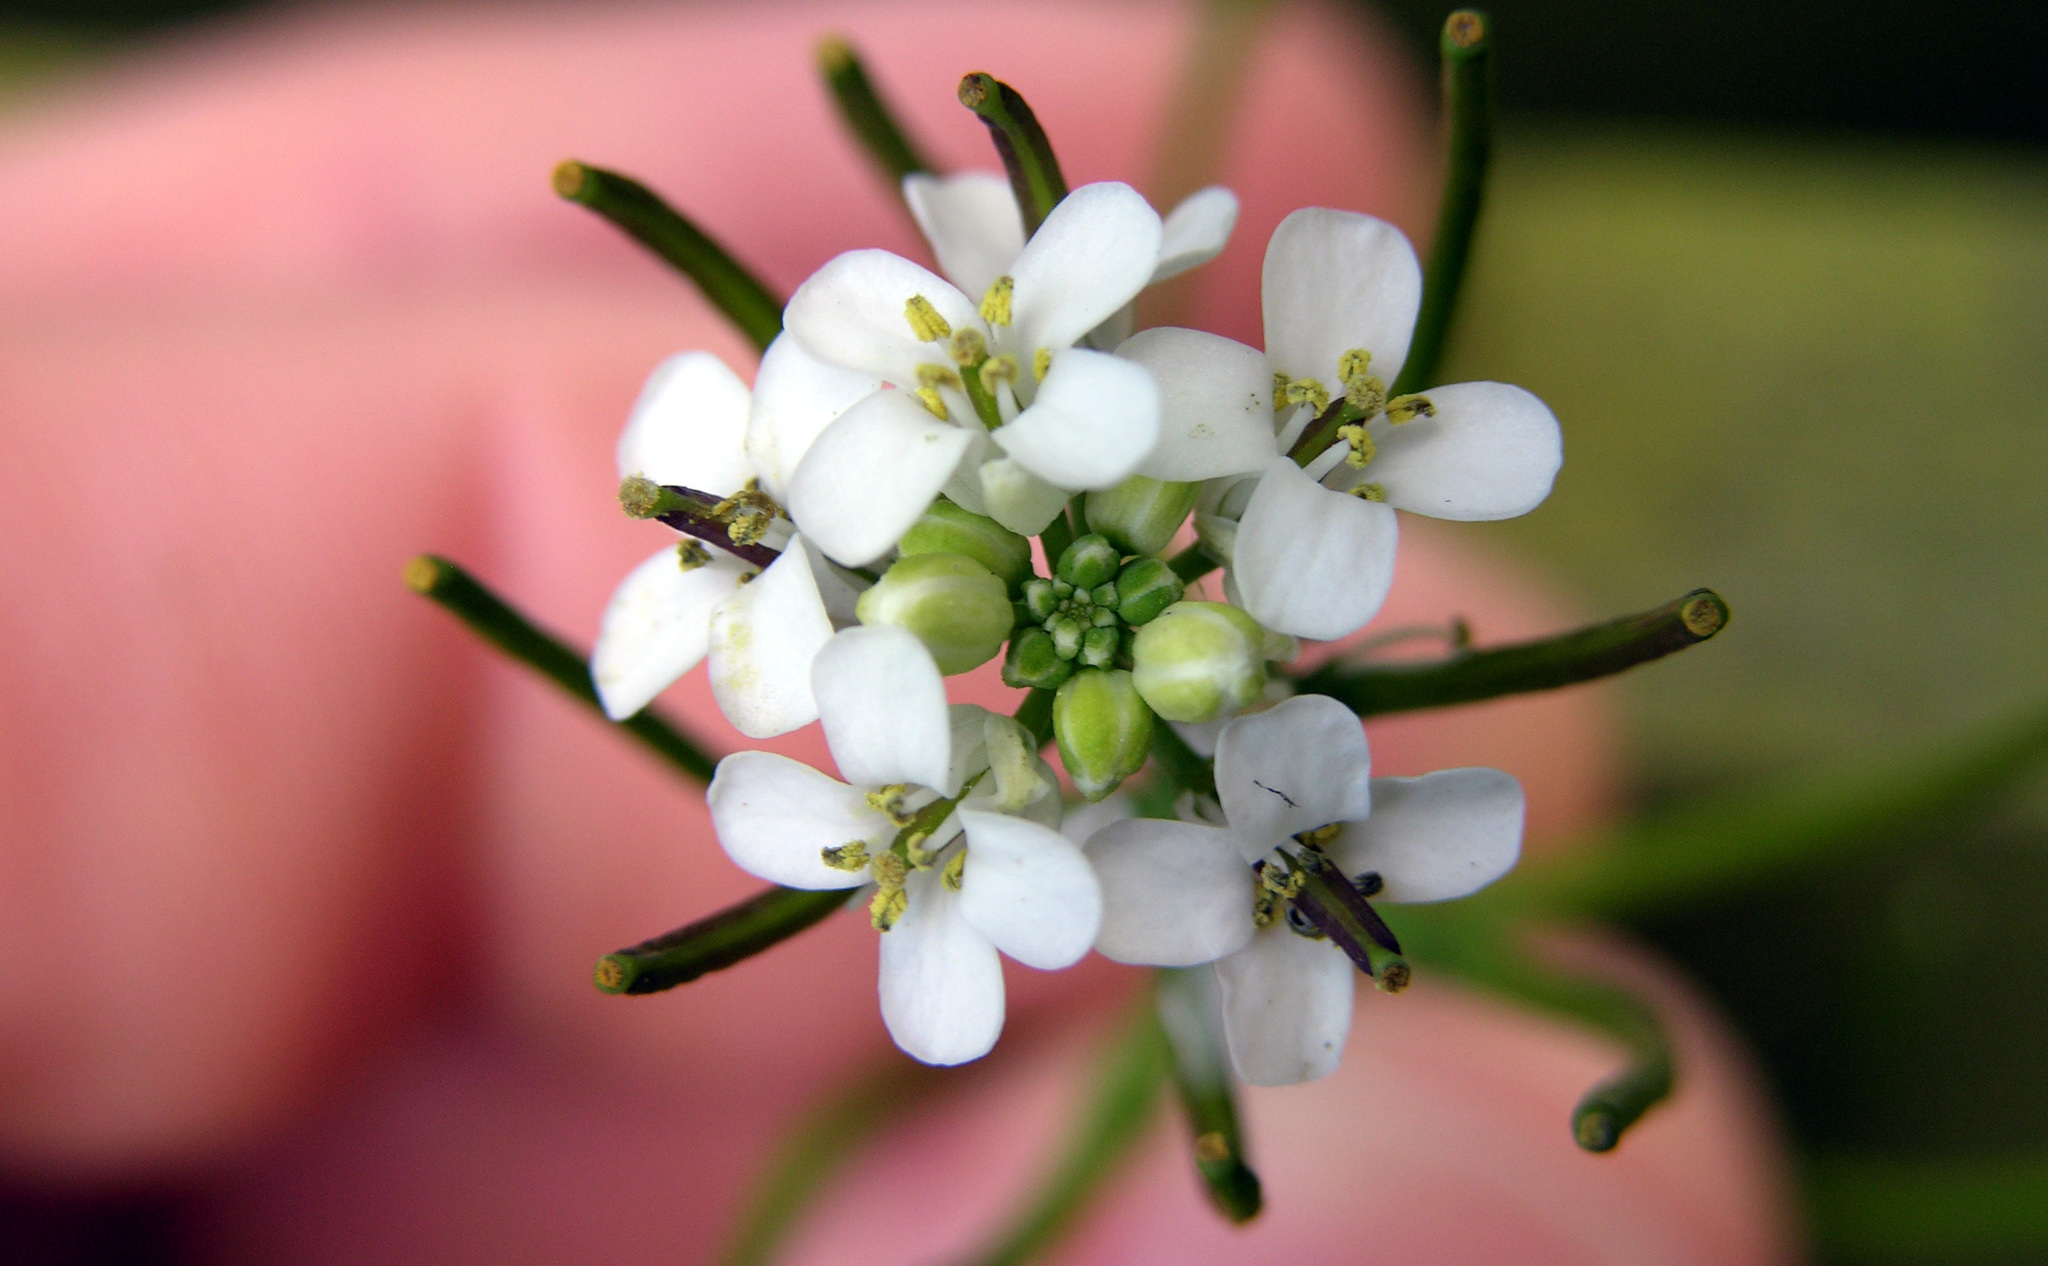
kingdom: Plantae
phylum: Tracheophyta
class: Magnoliopsida
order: Brassicales
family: Brassicaceae
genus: Alliaria
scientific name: Alliaria petiolata
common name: Garlic mustard
